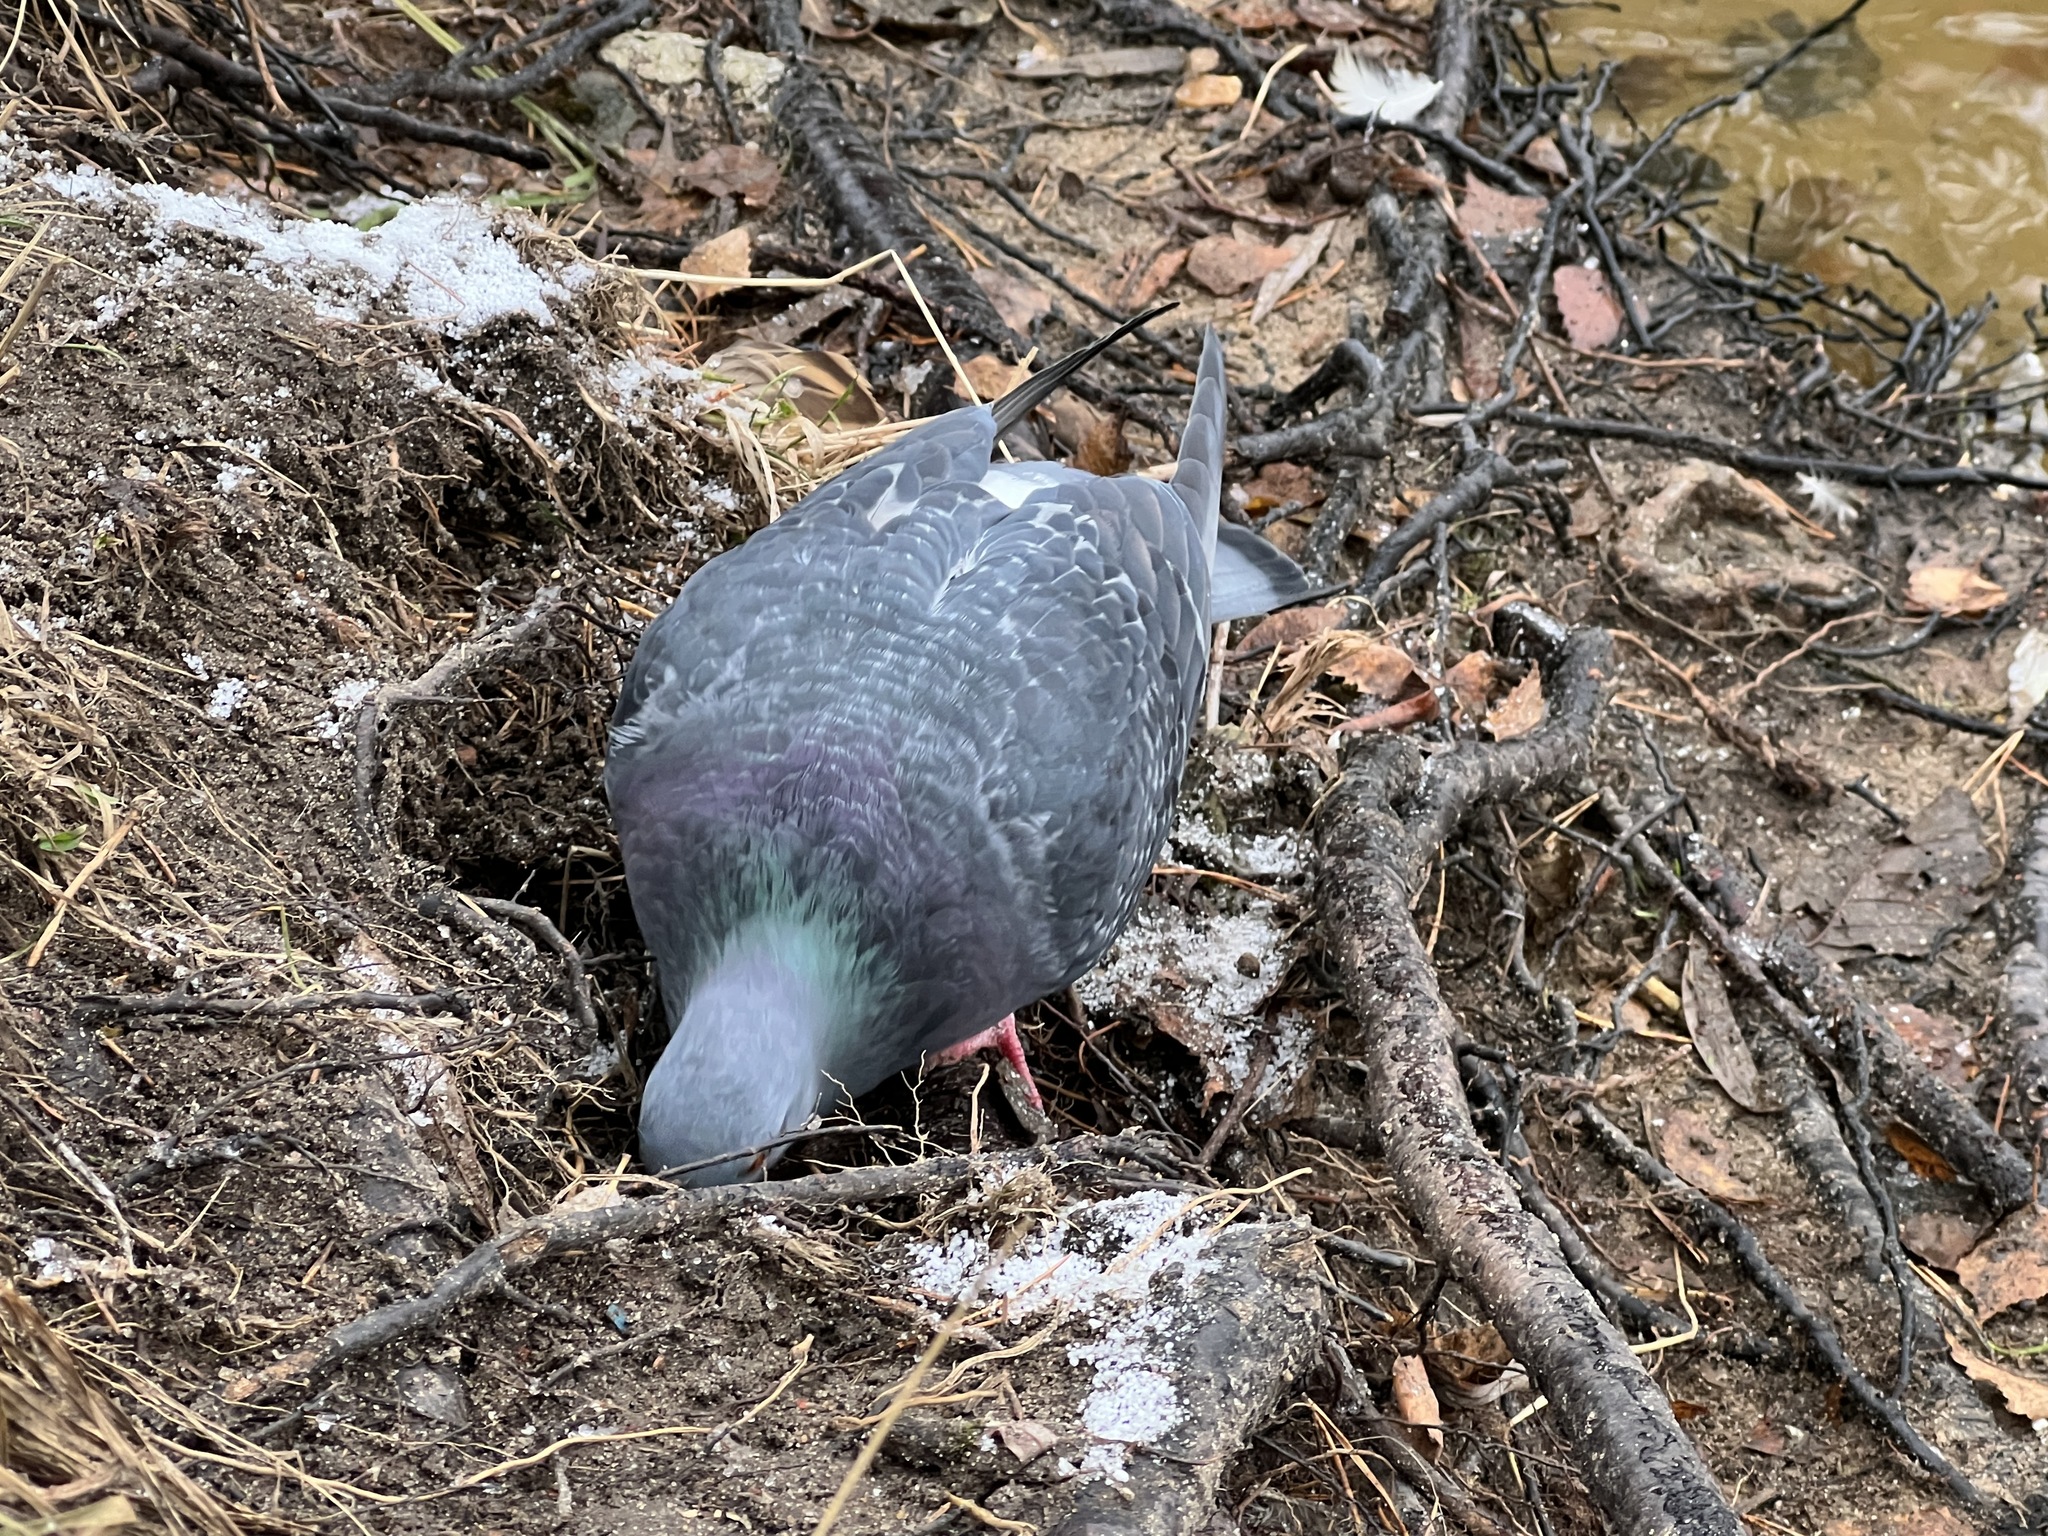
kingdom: Animalia
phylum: Chordata
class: Aves
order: Columbiformes
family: Columbidae
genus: Columba
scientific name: Columba livia
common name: Rock pigeon
